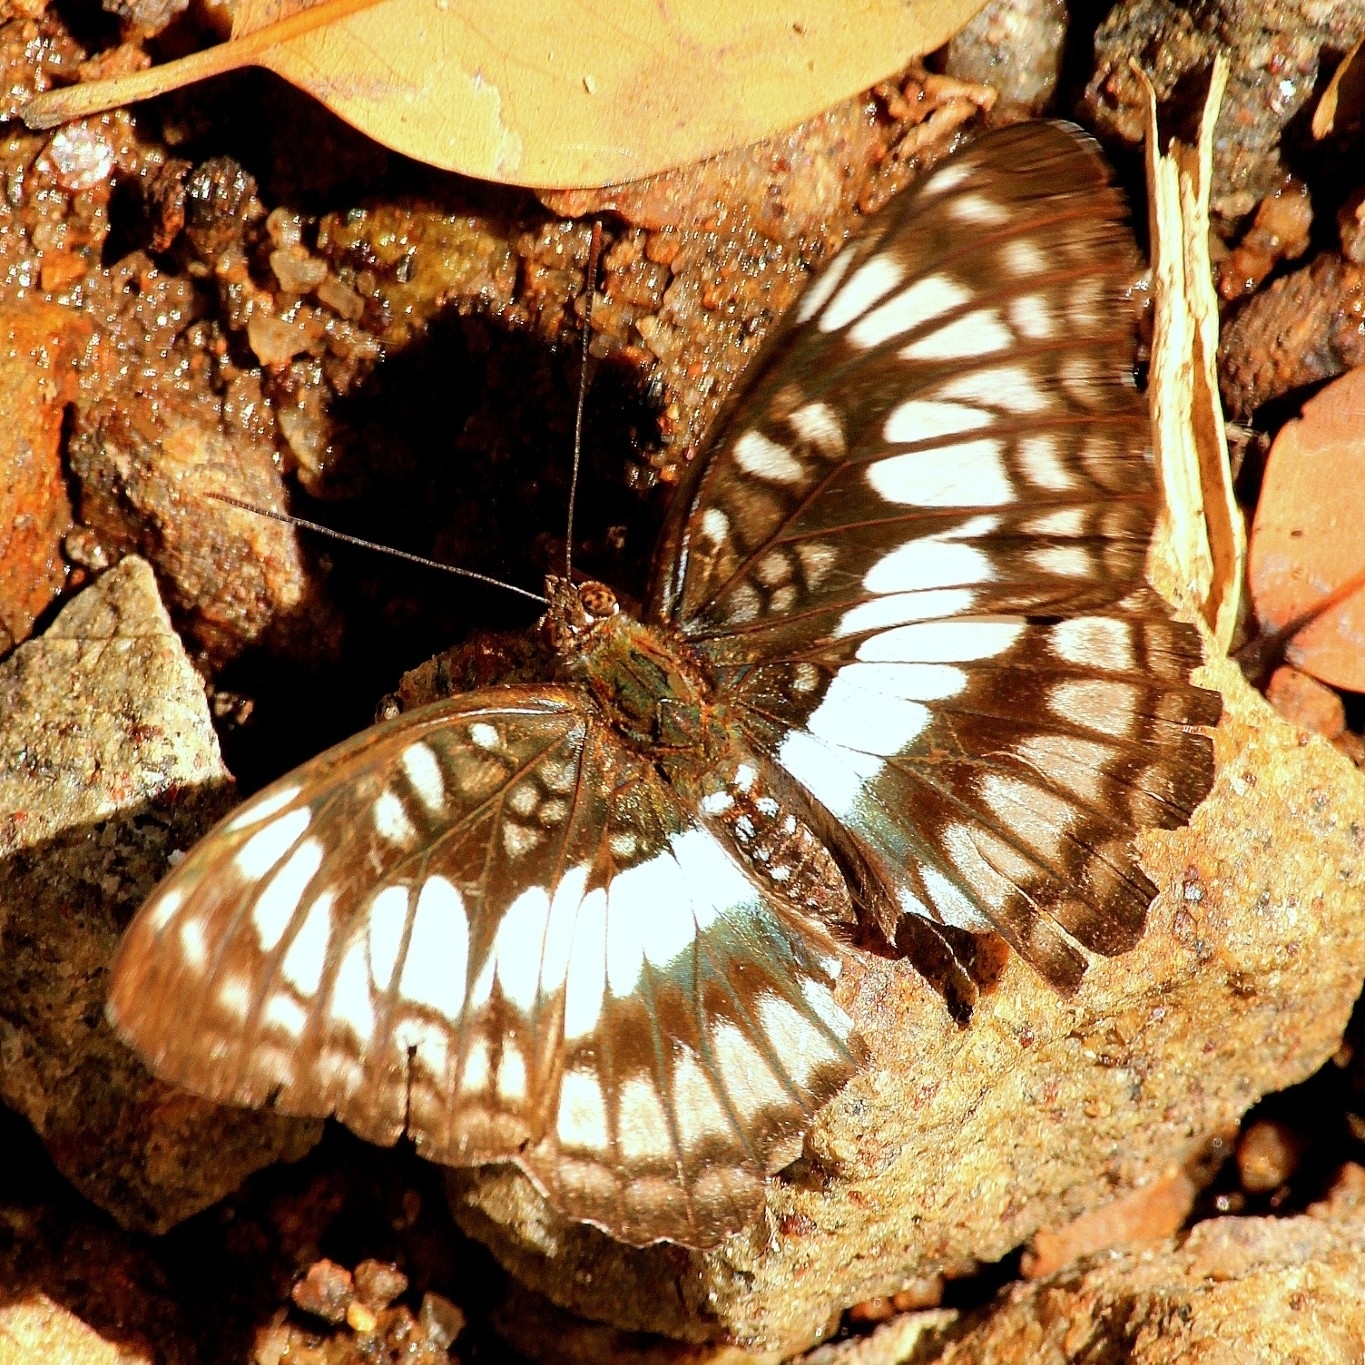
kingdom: Animalia
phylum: Arthropoda
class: Insecta
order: Lepidoptera
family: Nymphalidae
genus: Parathyma
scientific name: Parathyma ranga
